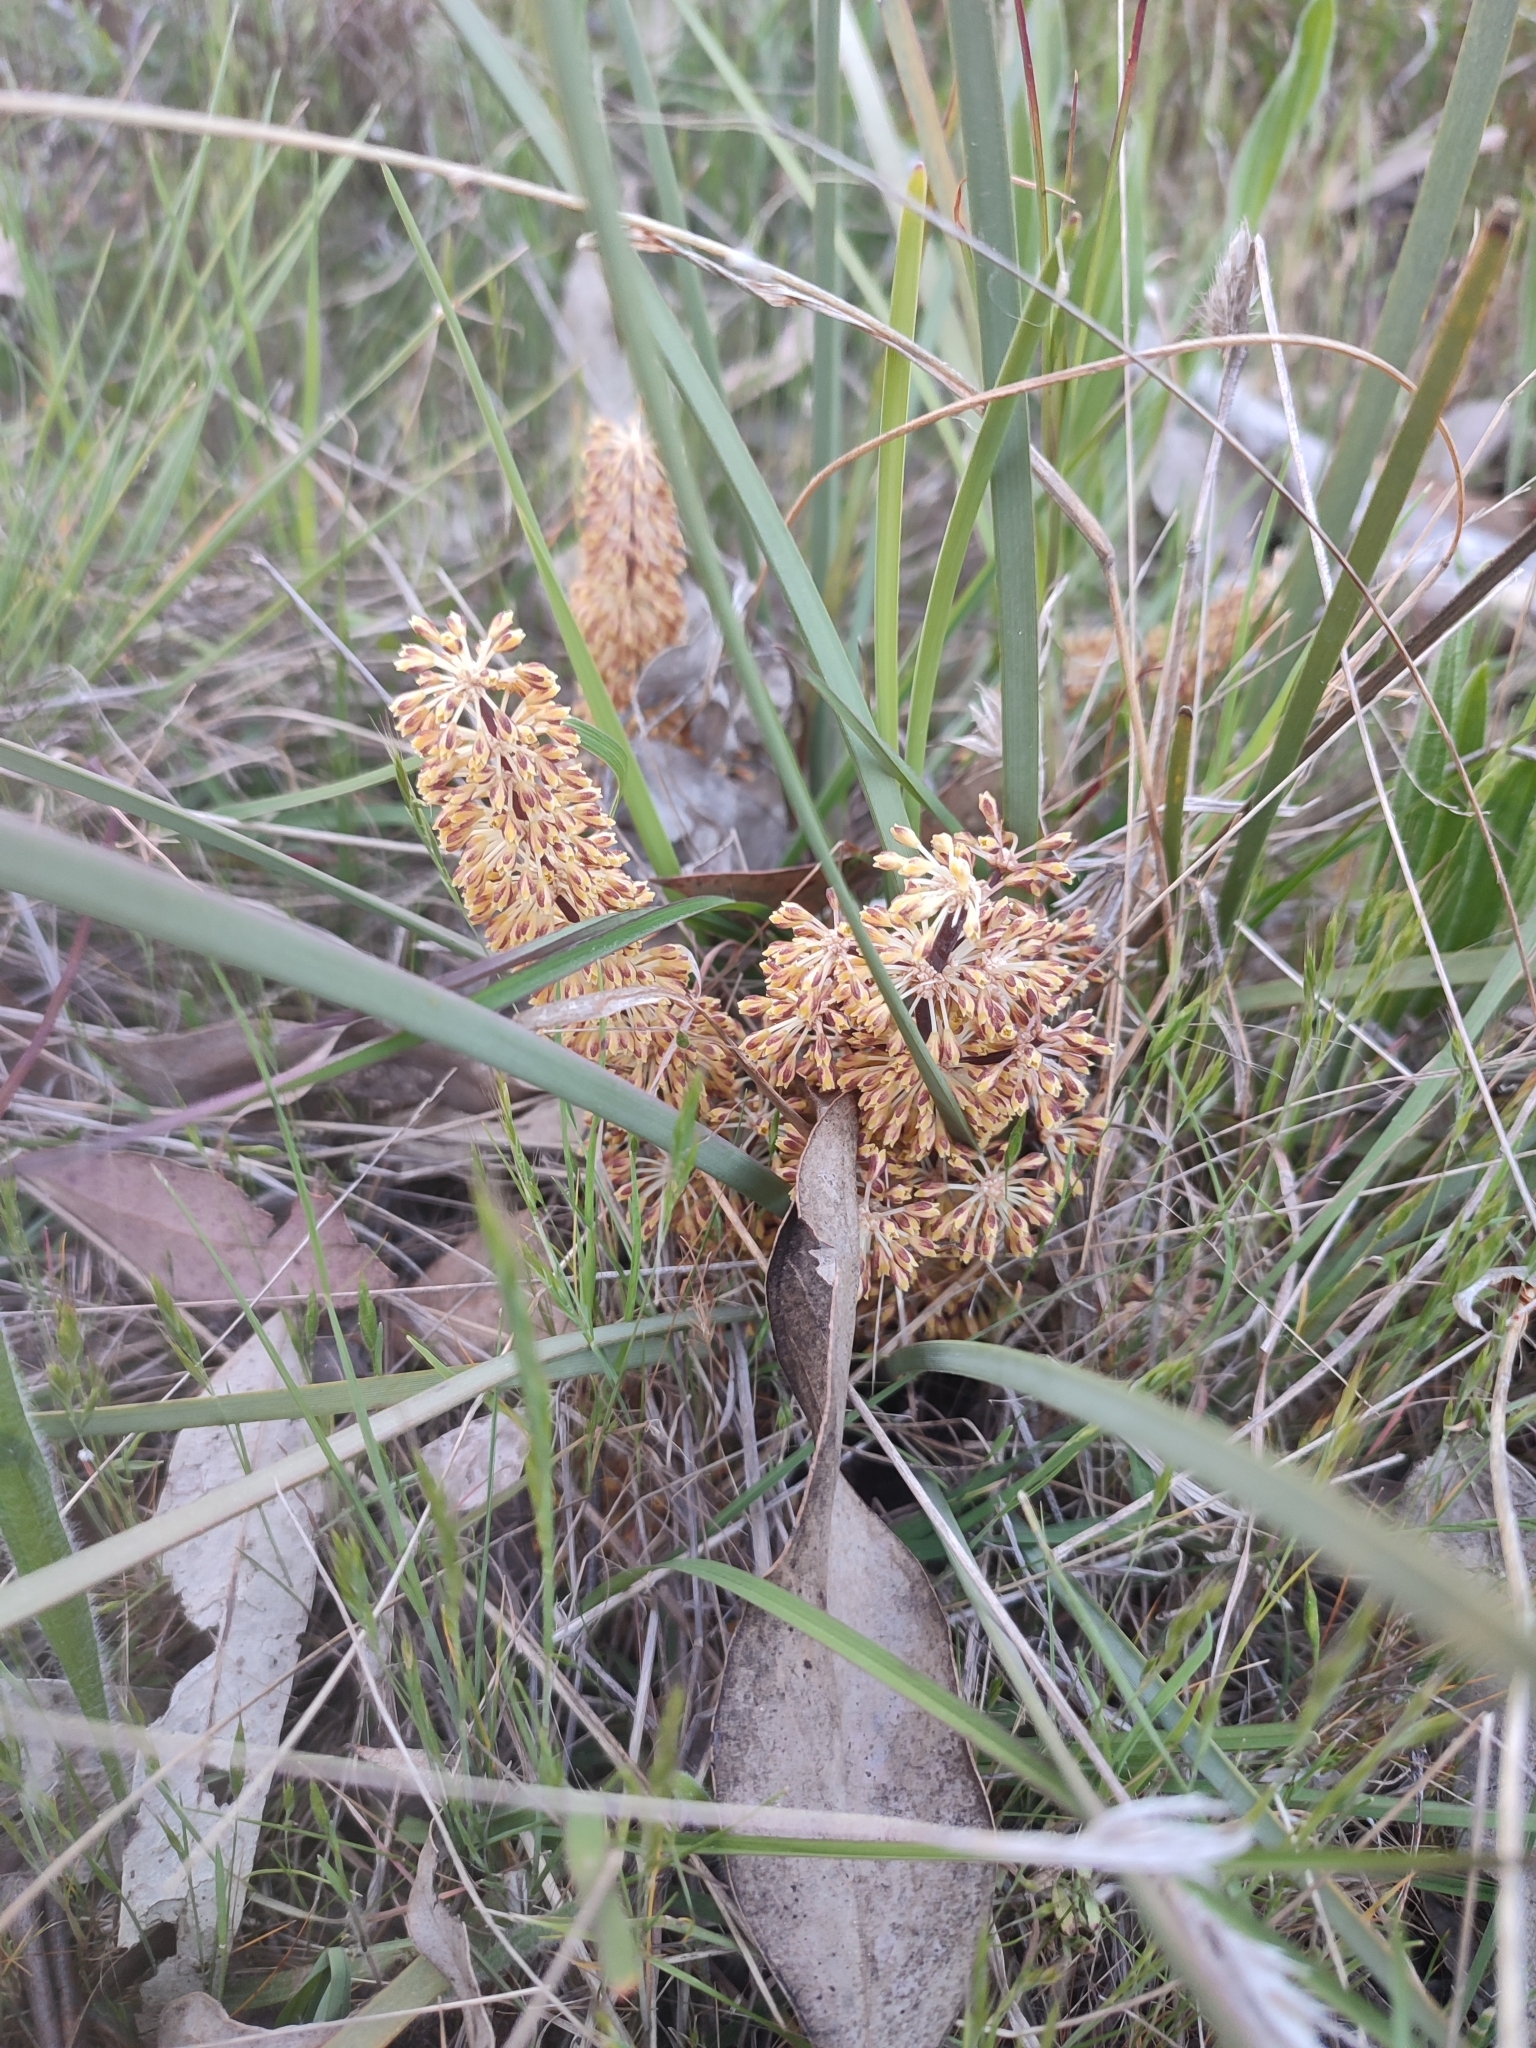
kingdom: Plantae
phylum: Tracheophyta
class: Liliopsida
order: Asparagales
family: Asparagaceae
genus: Lomandra
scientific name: Lomandra multiflora
